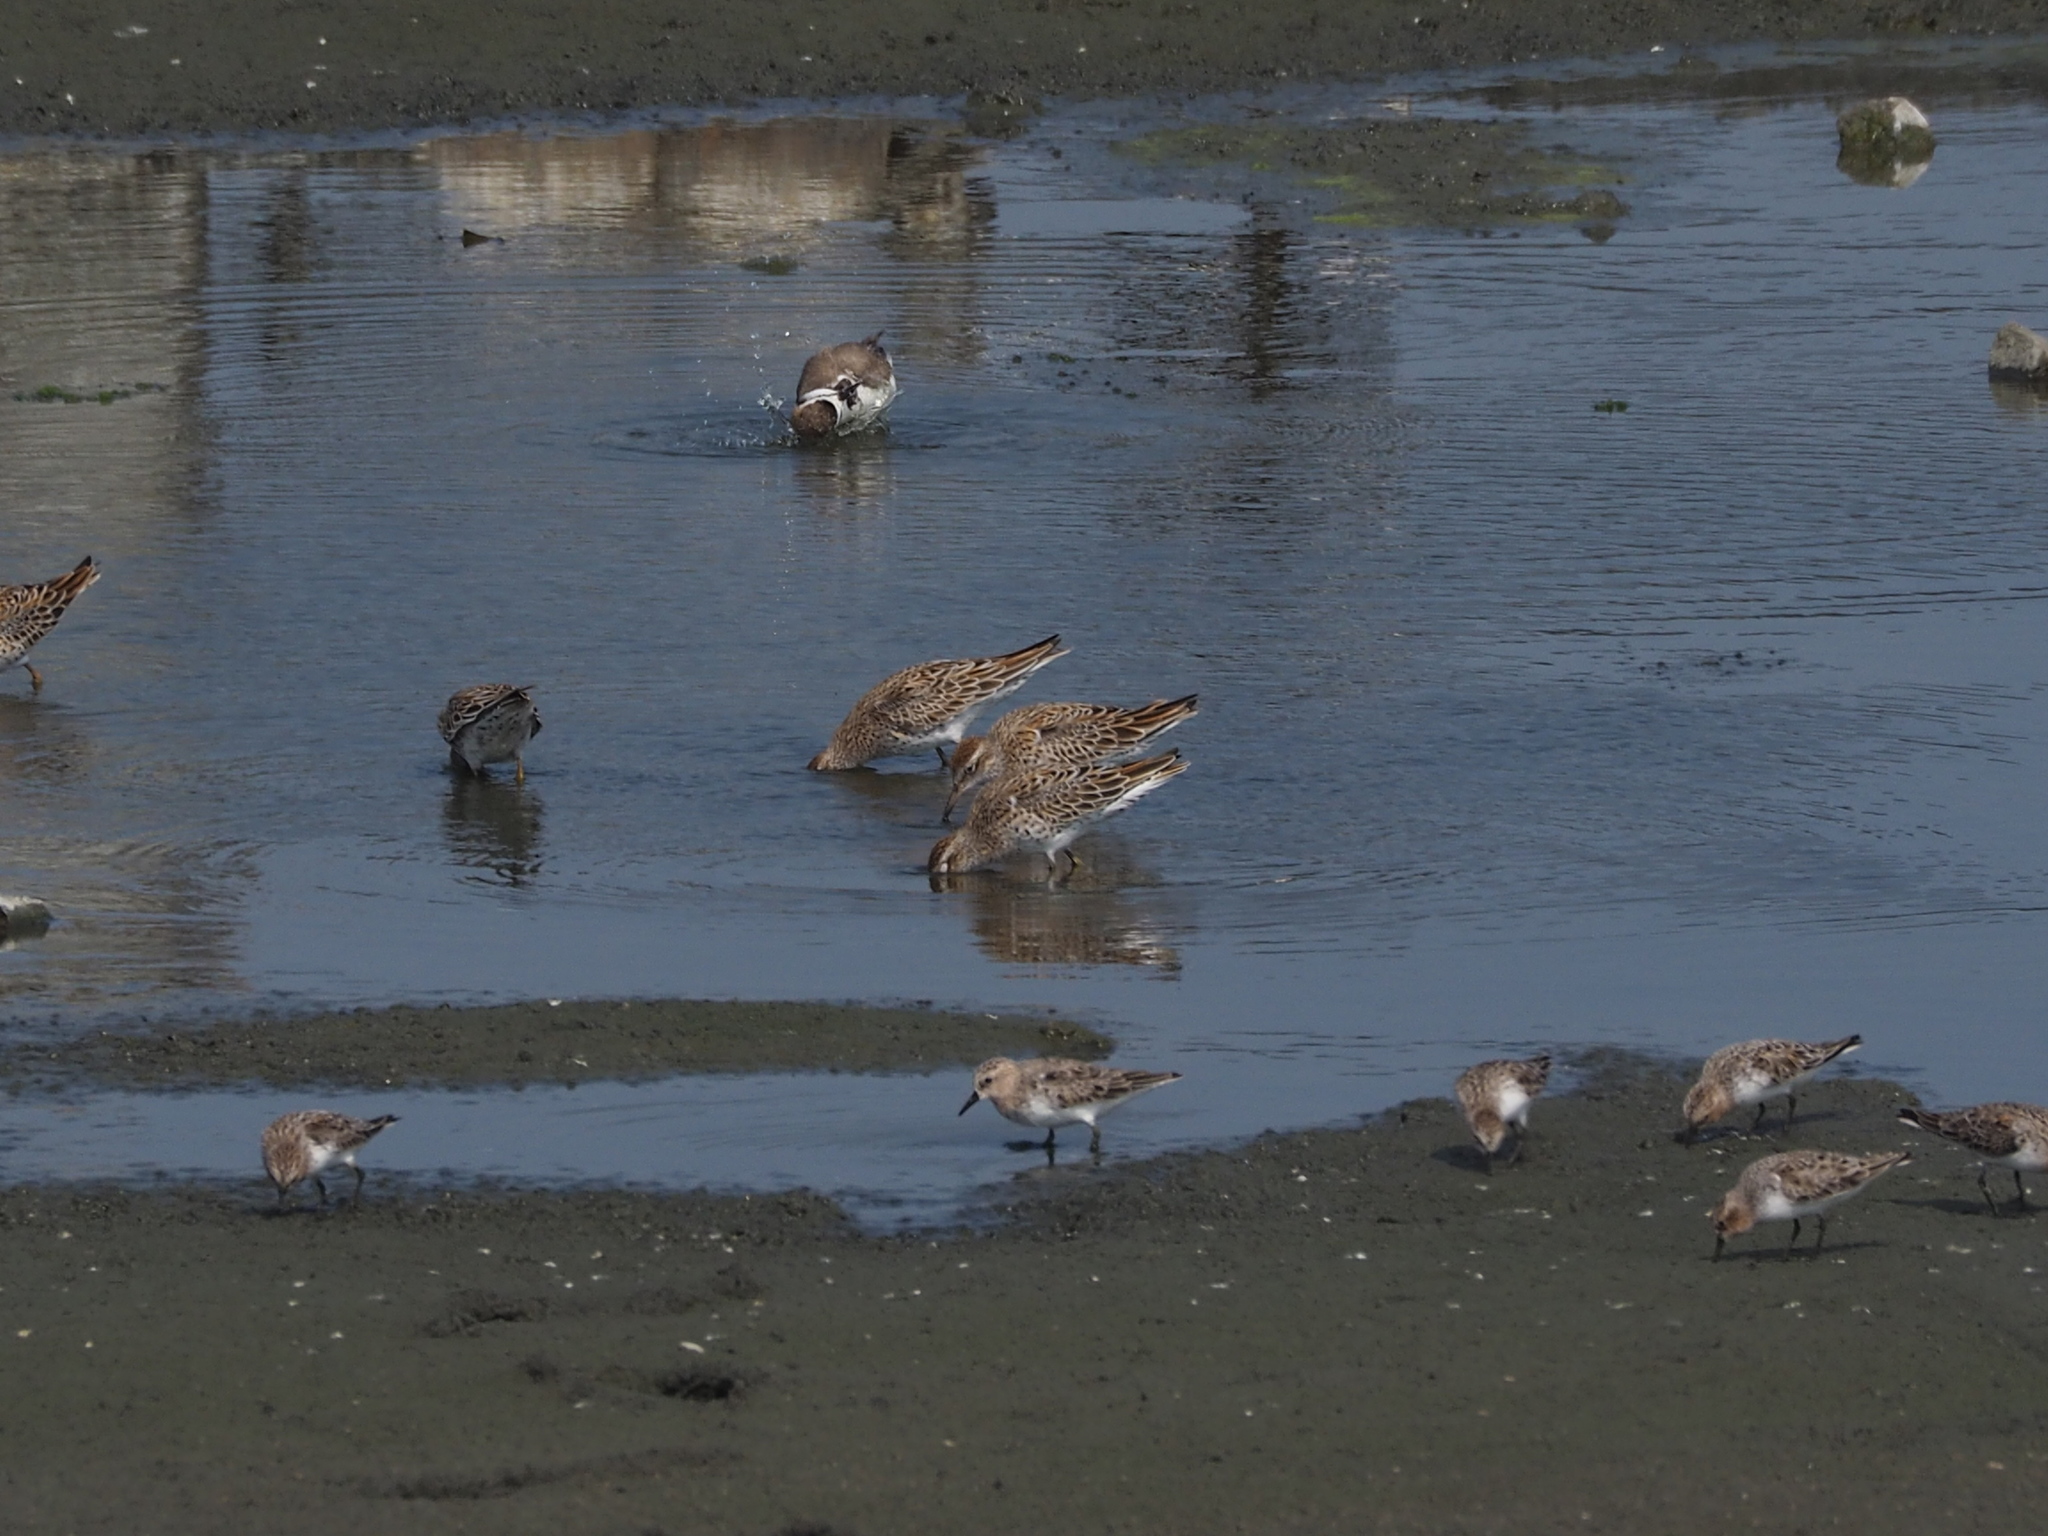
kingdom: Animalia
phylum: Chordata
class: Aves
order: Charadriiformes
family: Scolopacidae
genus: Calidris
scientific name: Calidris acuminata
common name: Sharp-tailed sandpiper
